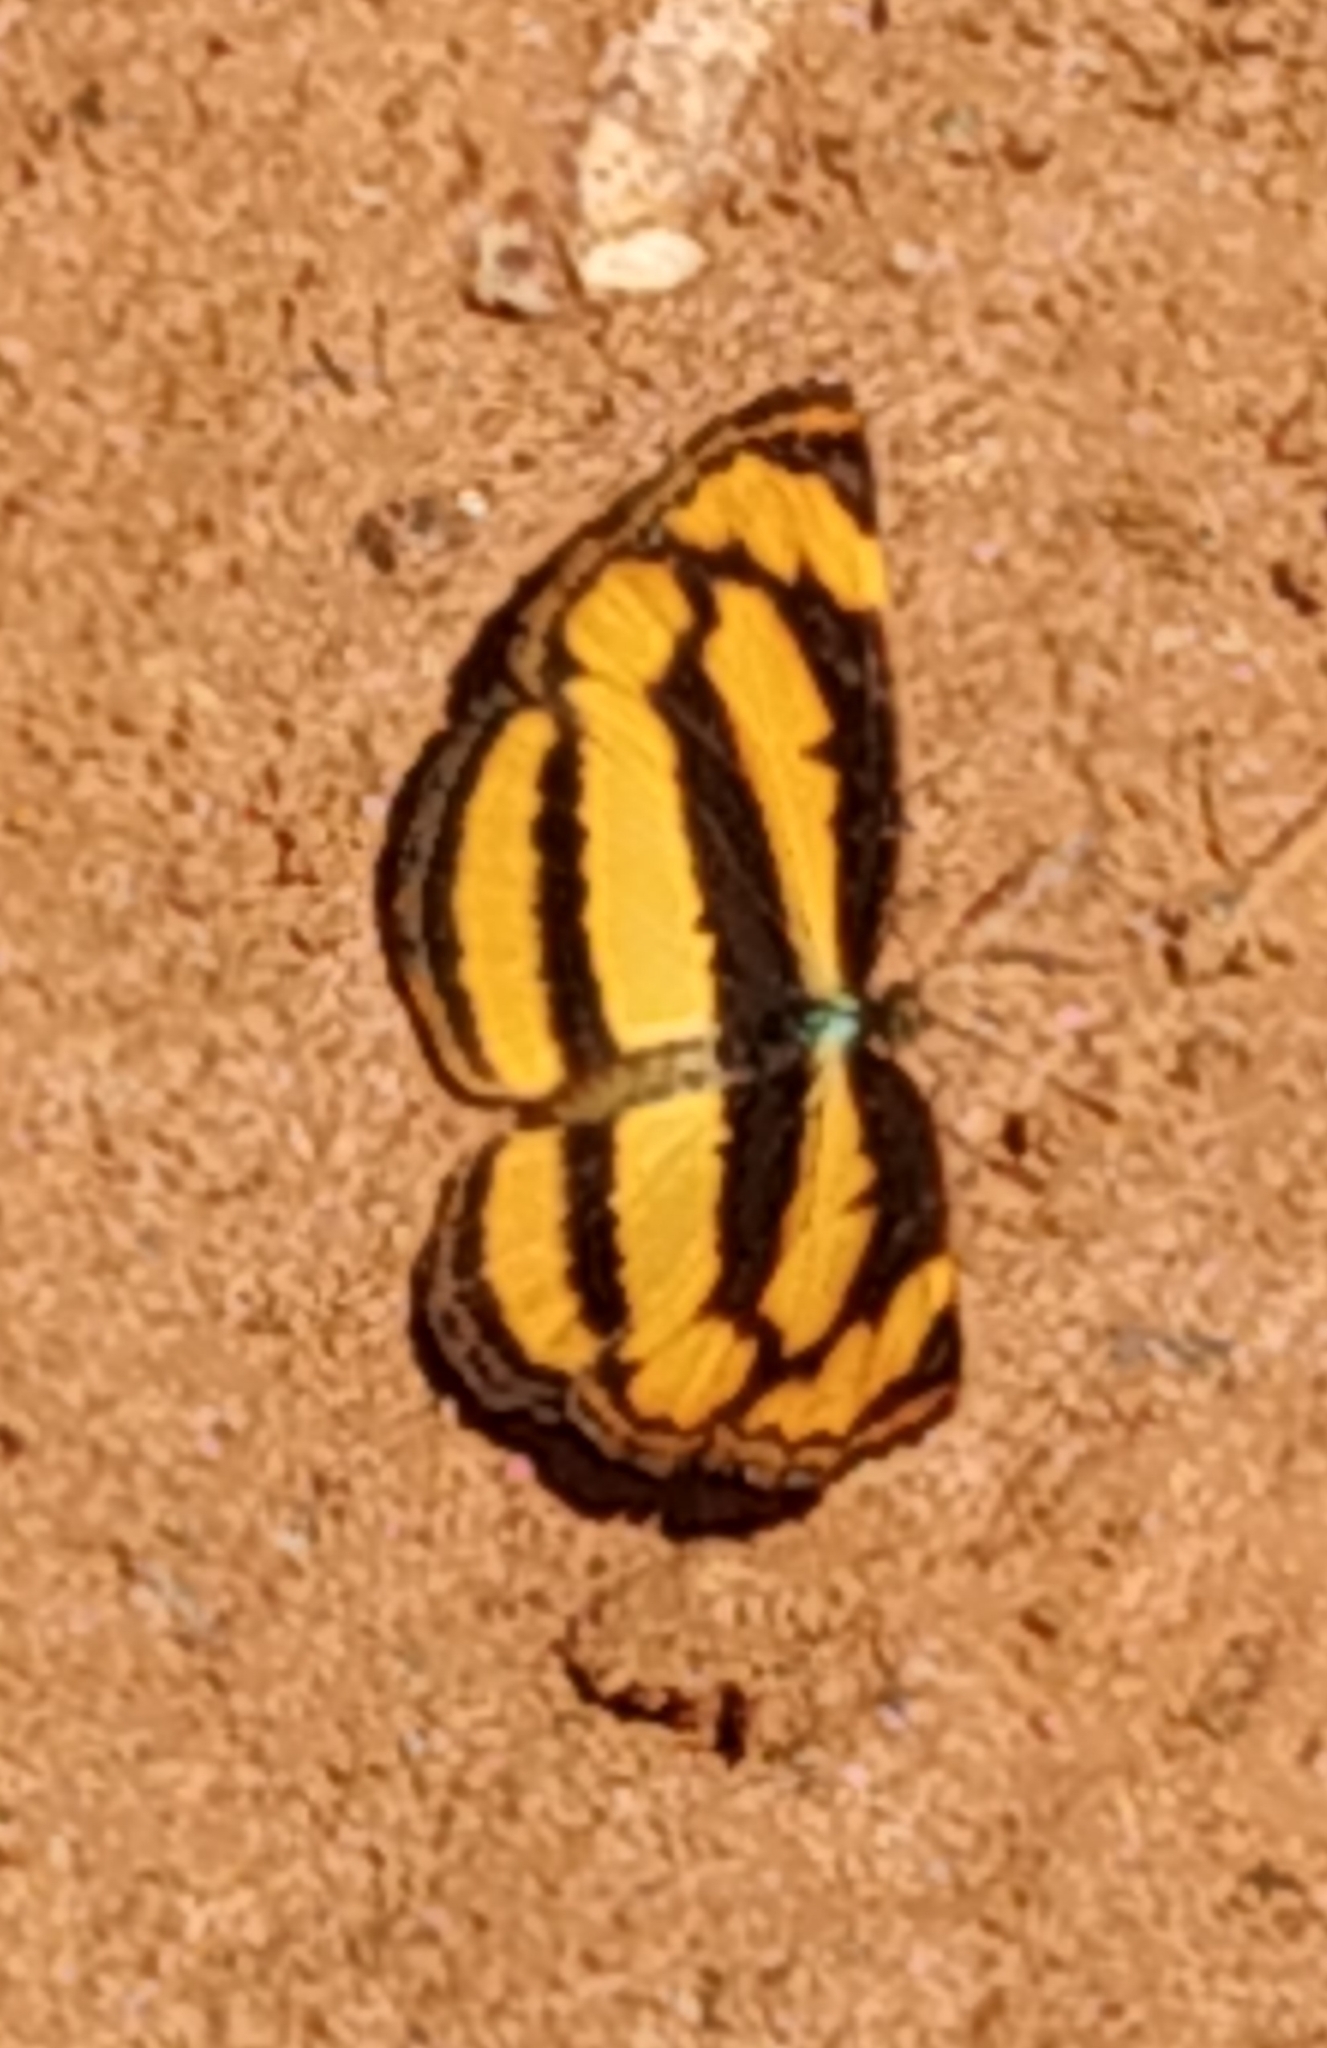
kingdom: Animalia
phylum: Arthropoda
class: Insecta
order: Lepidoptera
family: Nymphalidae
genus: Pantoporia
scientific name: Pantoporia hordonia
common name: Common lascar
